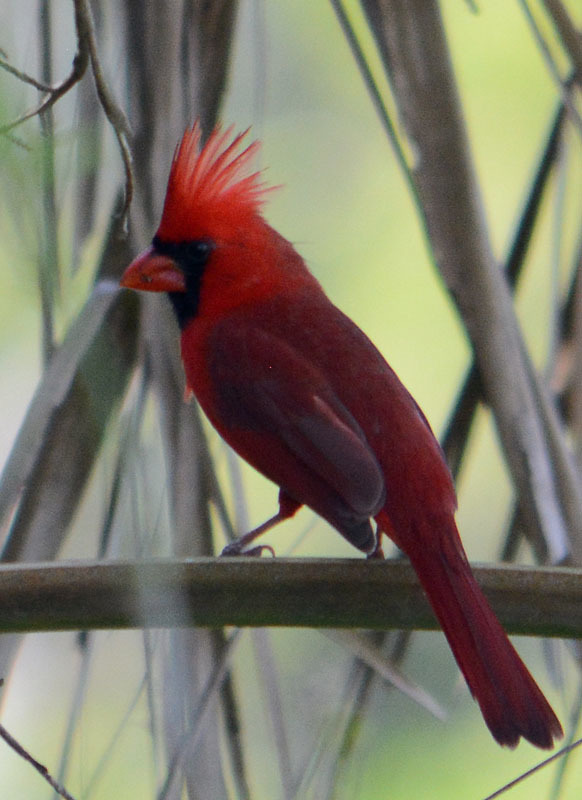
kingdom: Animalia
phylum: Chordata
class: Aves
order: Passeriformes
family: Cardinalidae
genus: Cardinalis
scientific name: Cardinalis cardinalis
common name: Northern cardinal
